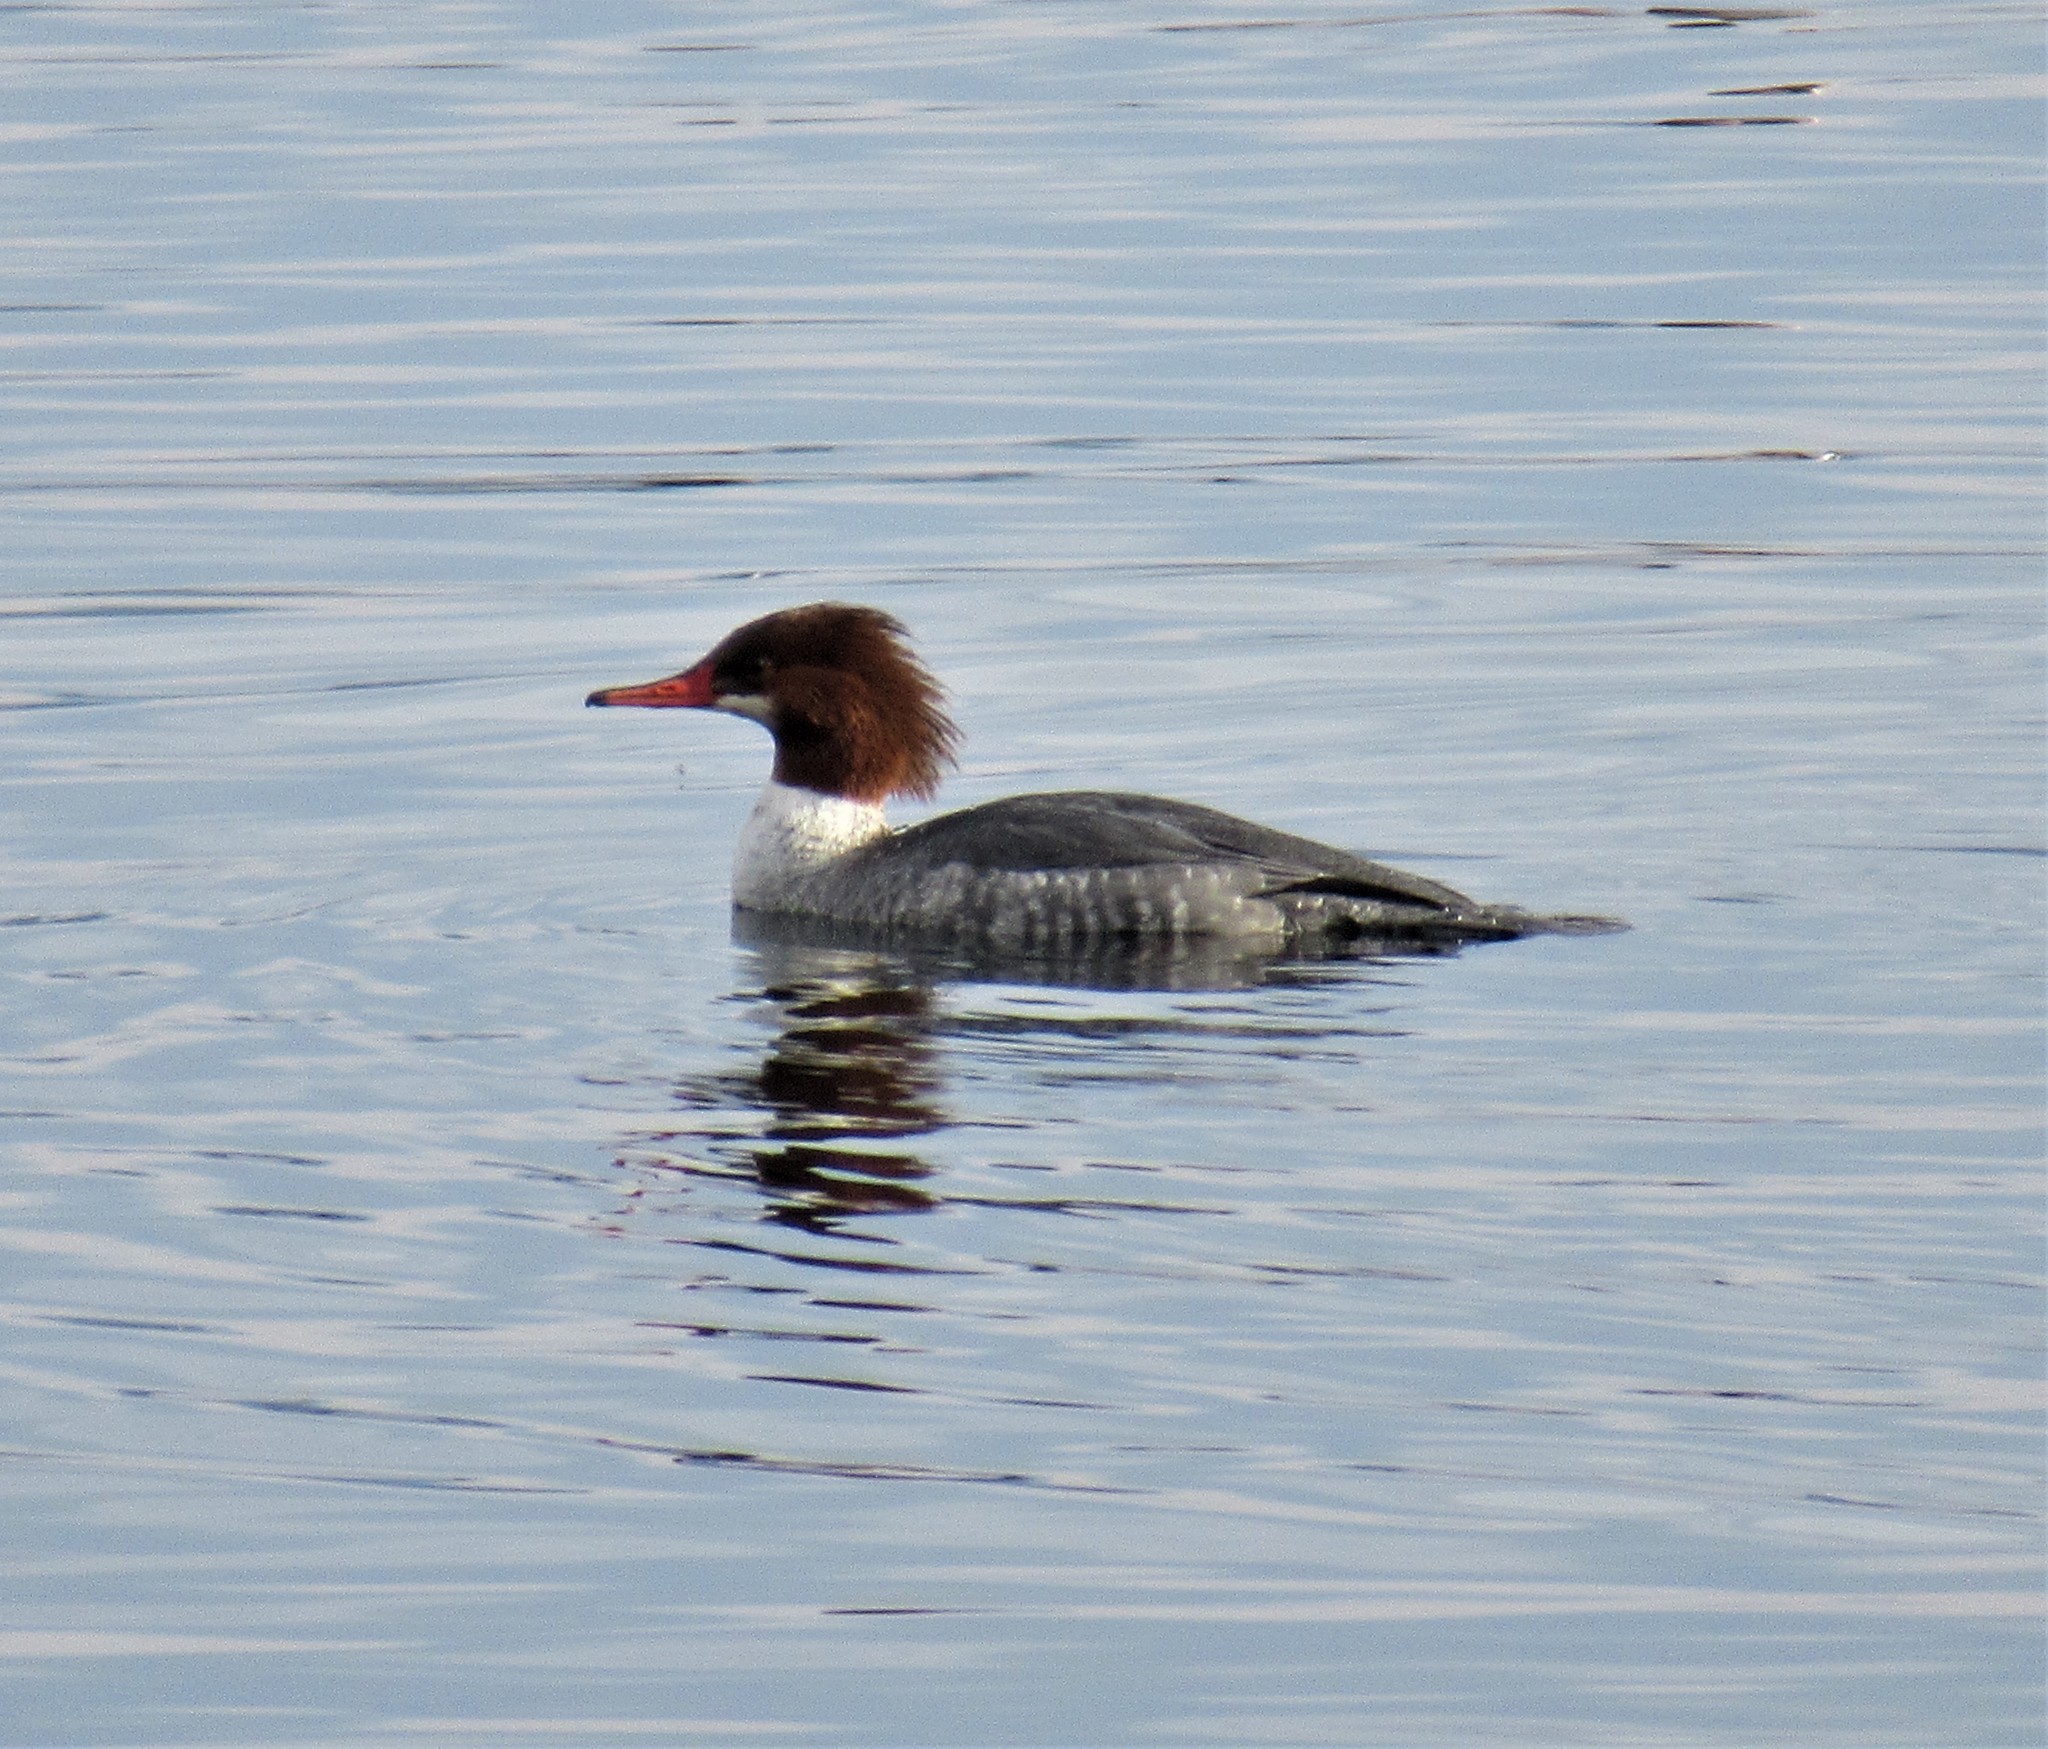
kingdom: Animalia
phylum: Chordata
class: Aves
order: Anseriformes
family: Anatidae
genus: Mergus
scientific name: Mergus merganser
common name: Common merganser
